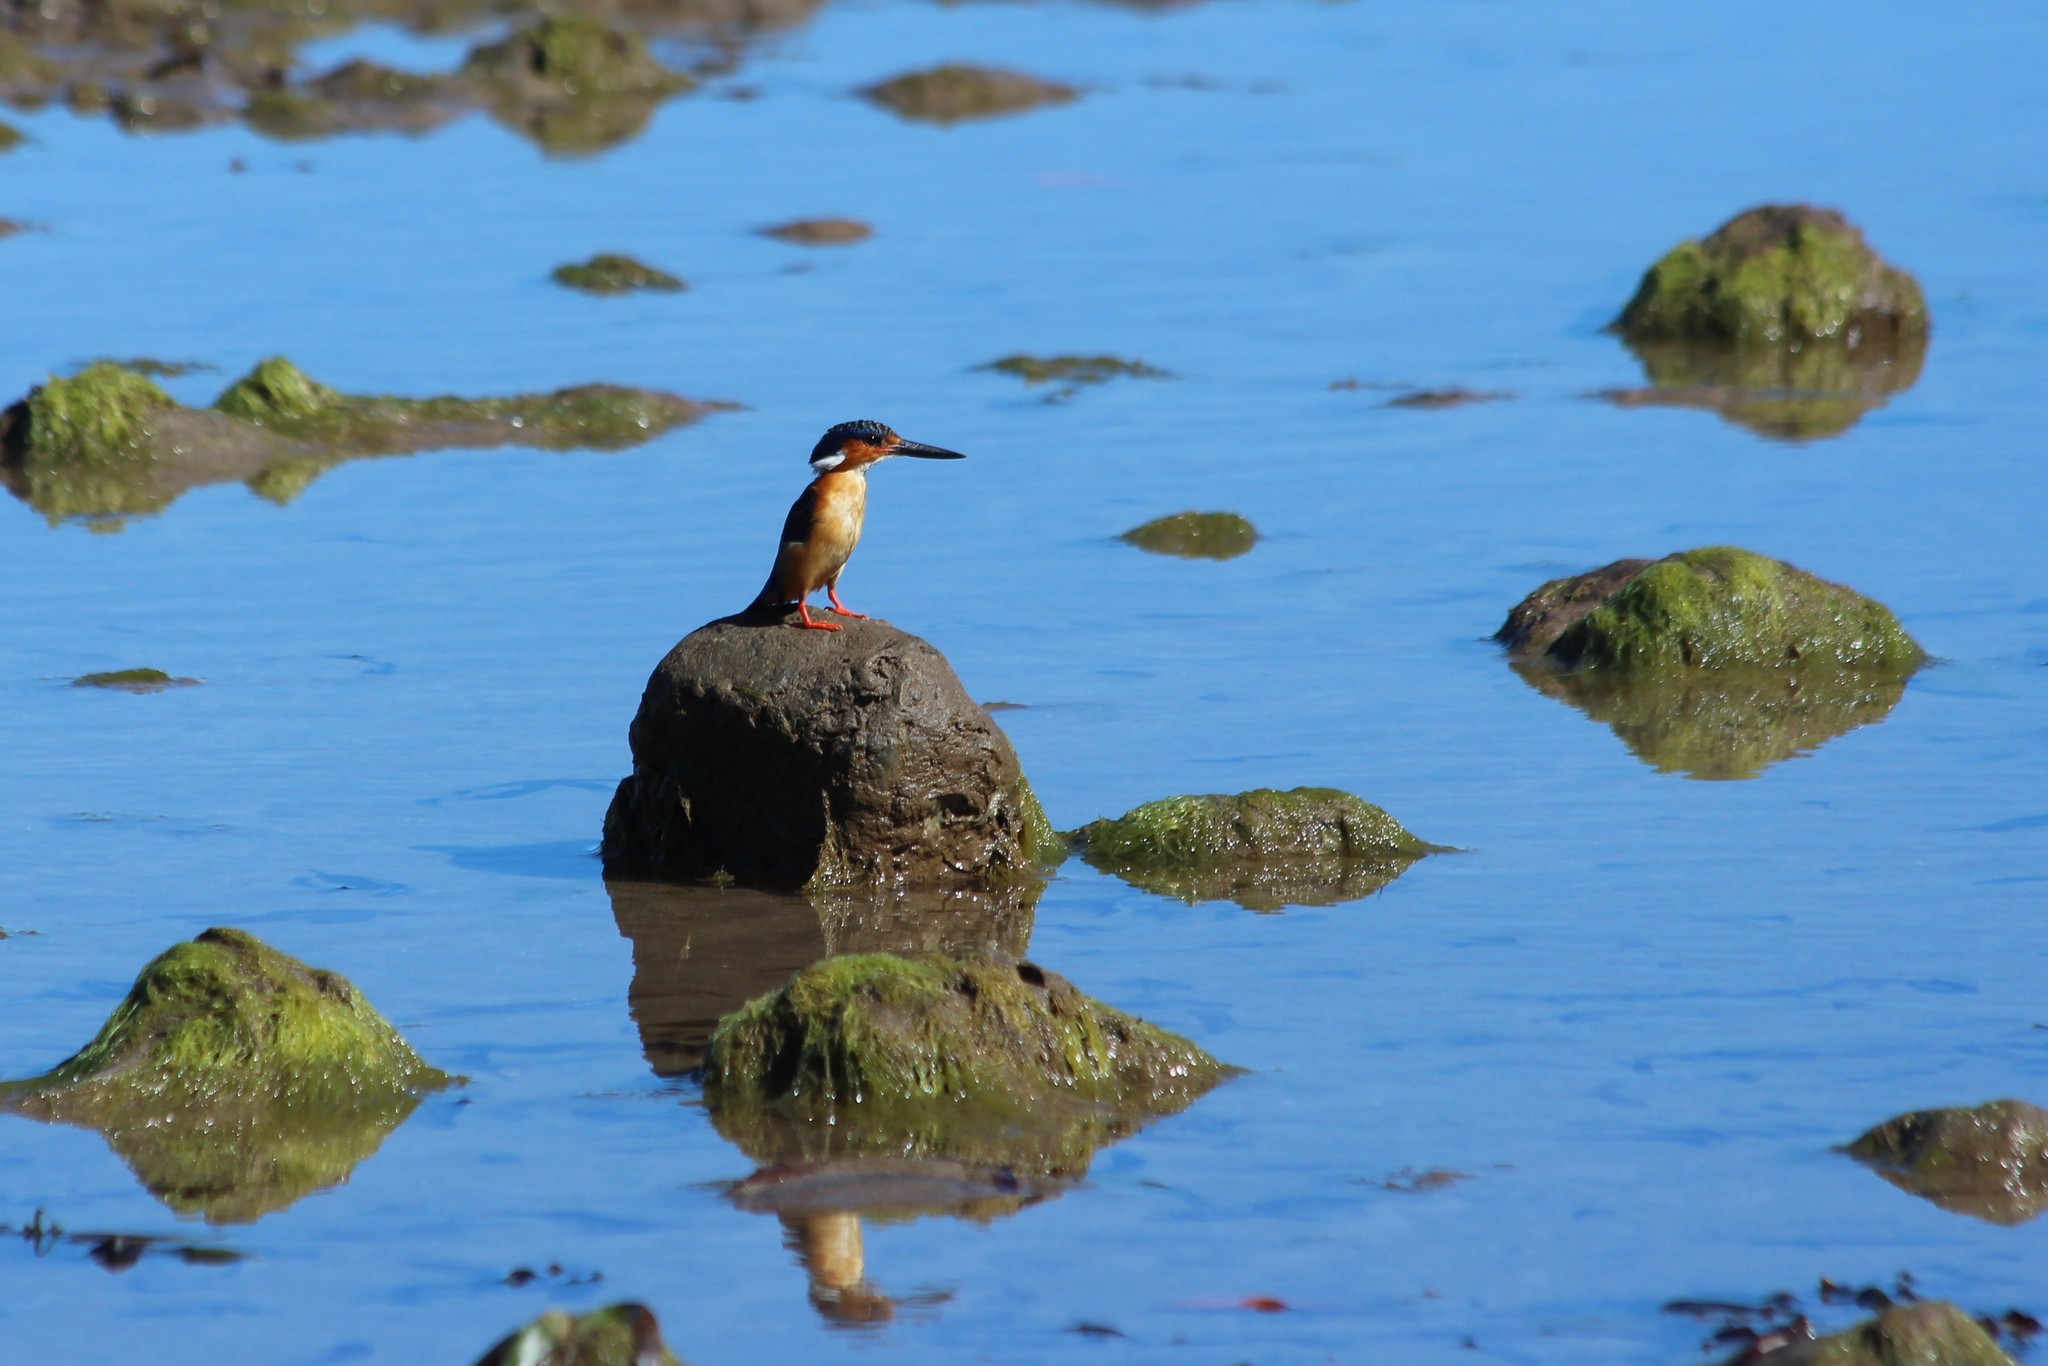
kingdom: Animalia
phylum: Chordata
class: Aves
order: Coraciiformes
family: Alcedinidae
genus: Corythornis
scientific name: Corythornis vintsioides
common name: Malagasy kingfisher
